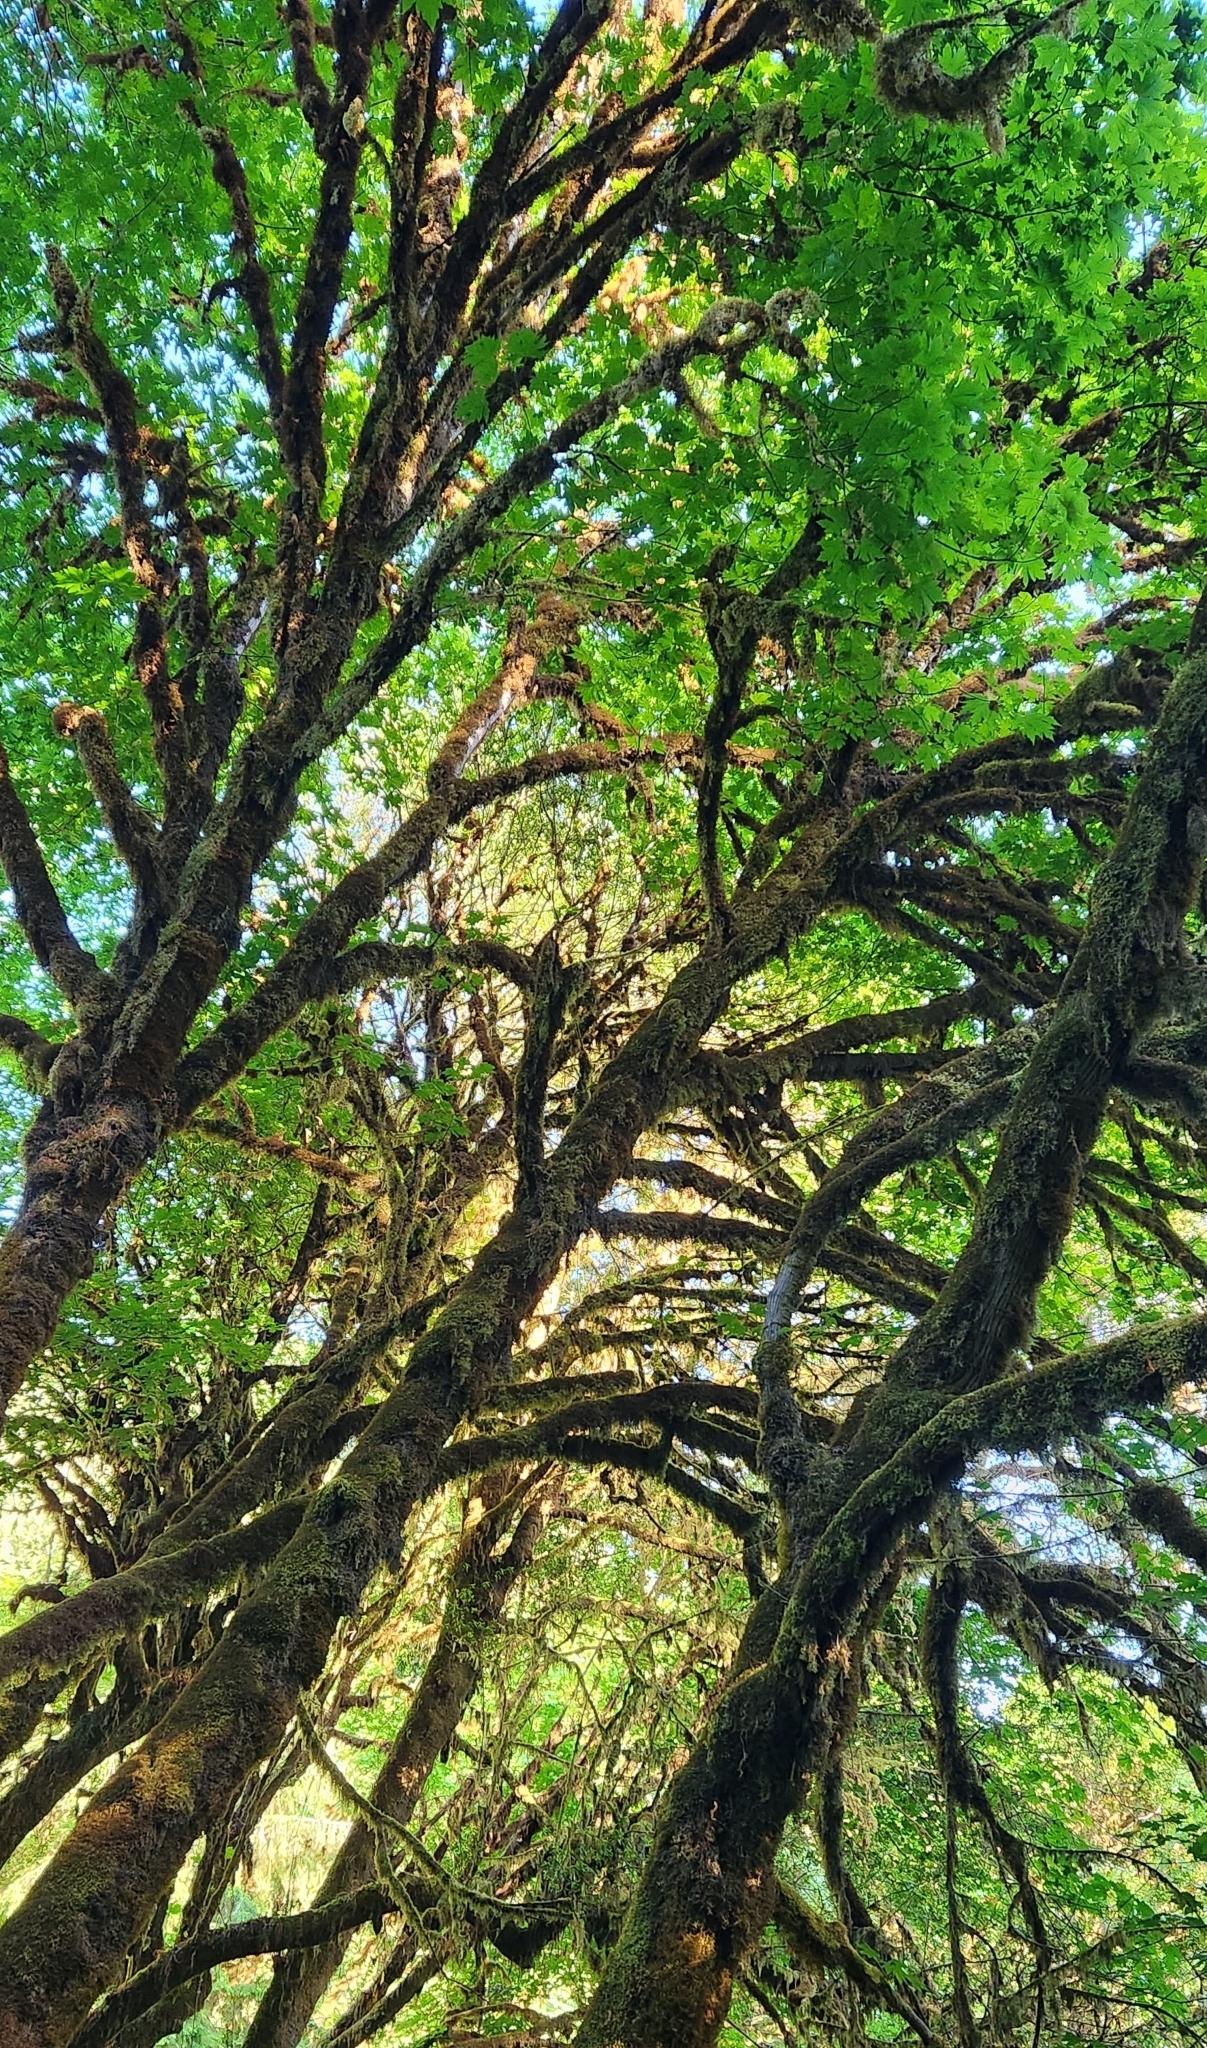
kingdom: Plantae
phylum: Tracheophyta
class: Magnoliopsida
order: Sapindales
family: Sapindaceae
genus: Acer
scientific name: Acer macrophyllum
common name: Oregon maple
